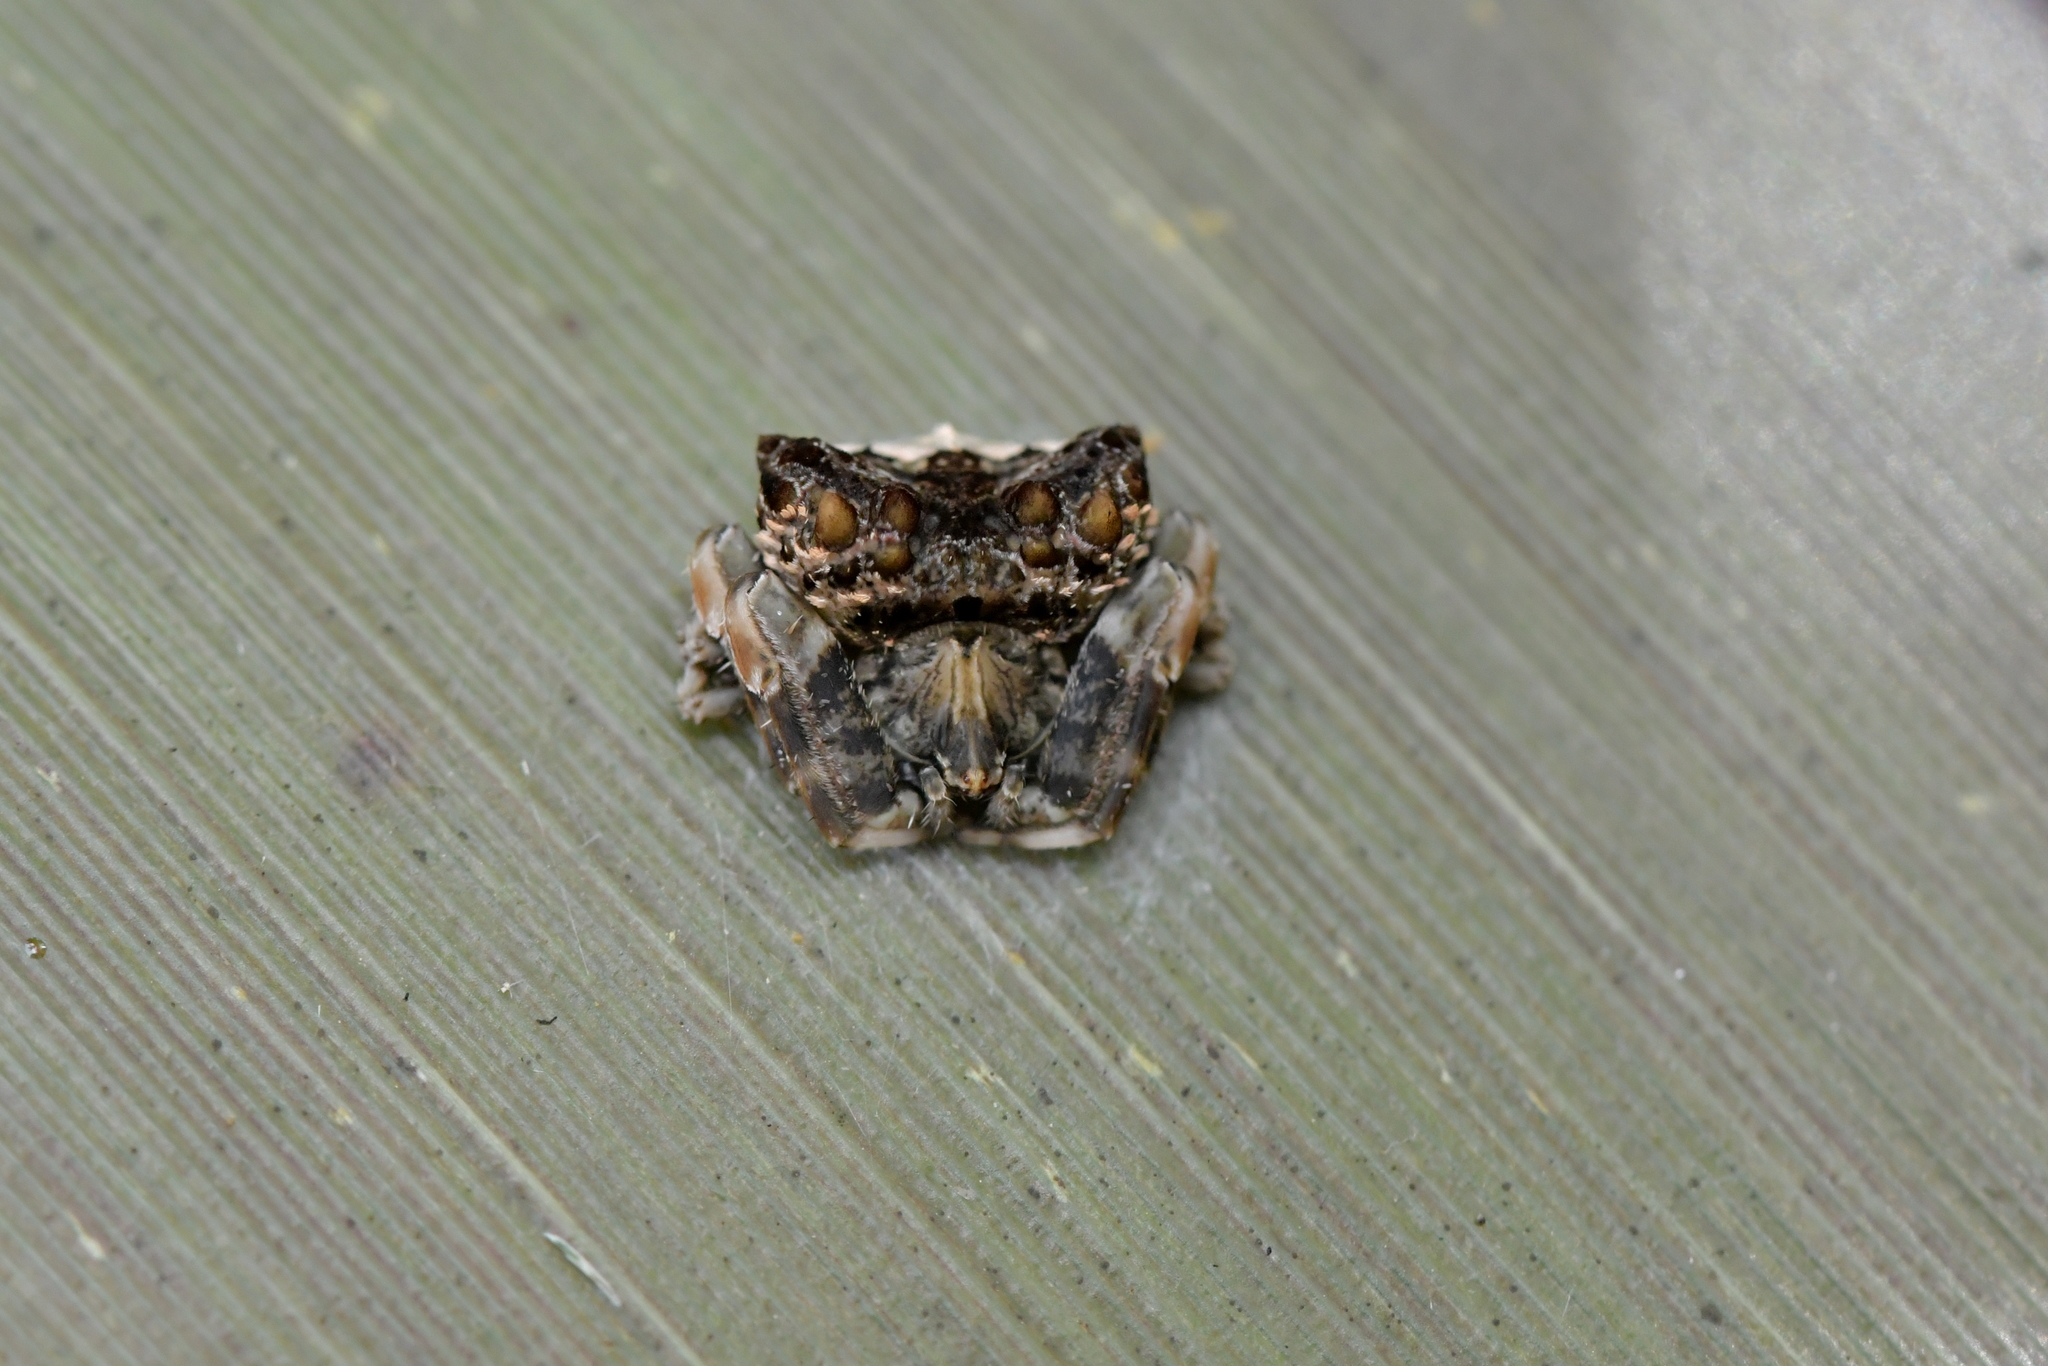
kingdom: Animalia
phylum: Arthropoda
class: Arachnida
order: Araneae
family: Araneidae
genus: Celaenia
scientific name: Celaenia tuberosa
